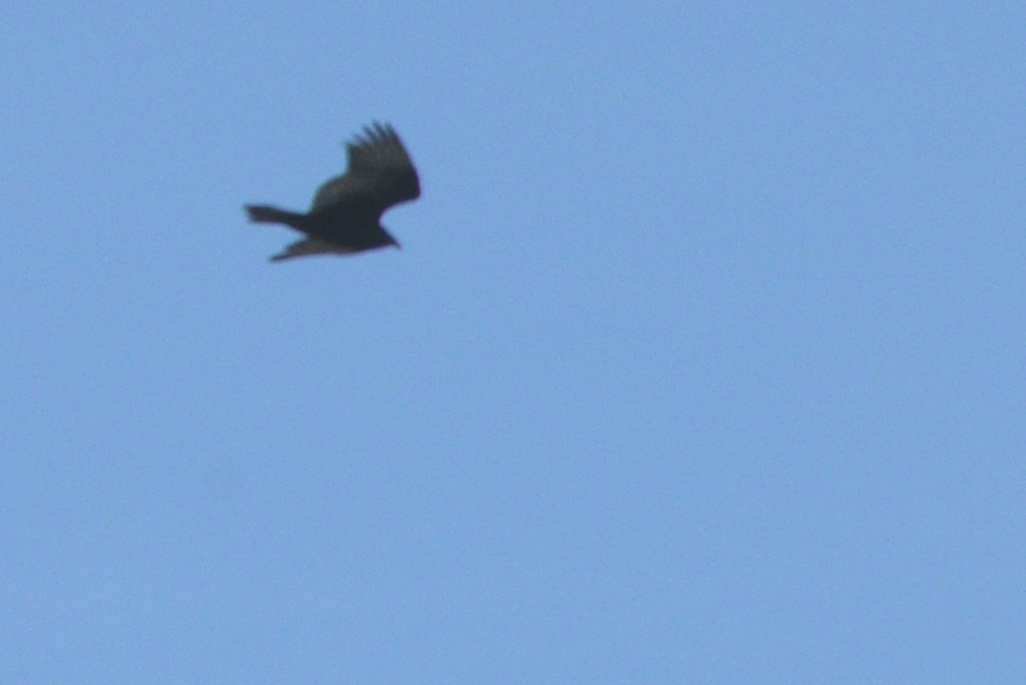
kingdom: Animalia
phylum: Chordata
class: Aves
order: Accipitriformes
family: Cathartidae
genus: Cathartes
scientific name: Cathartes aura
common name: Turkey vulture
